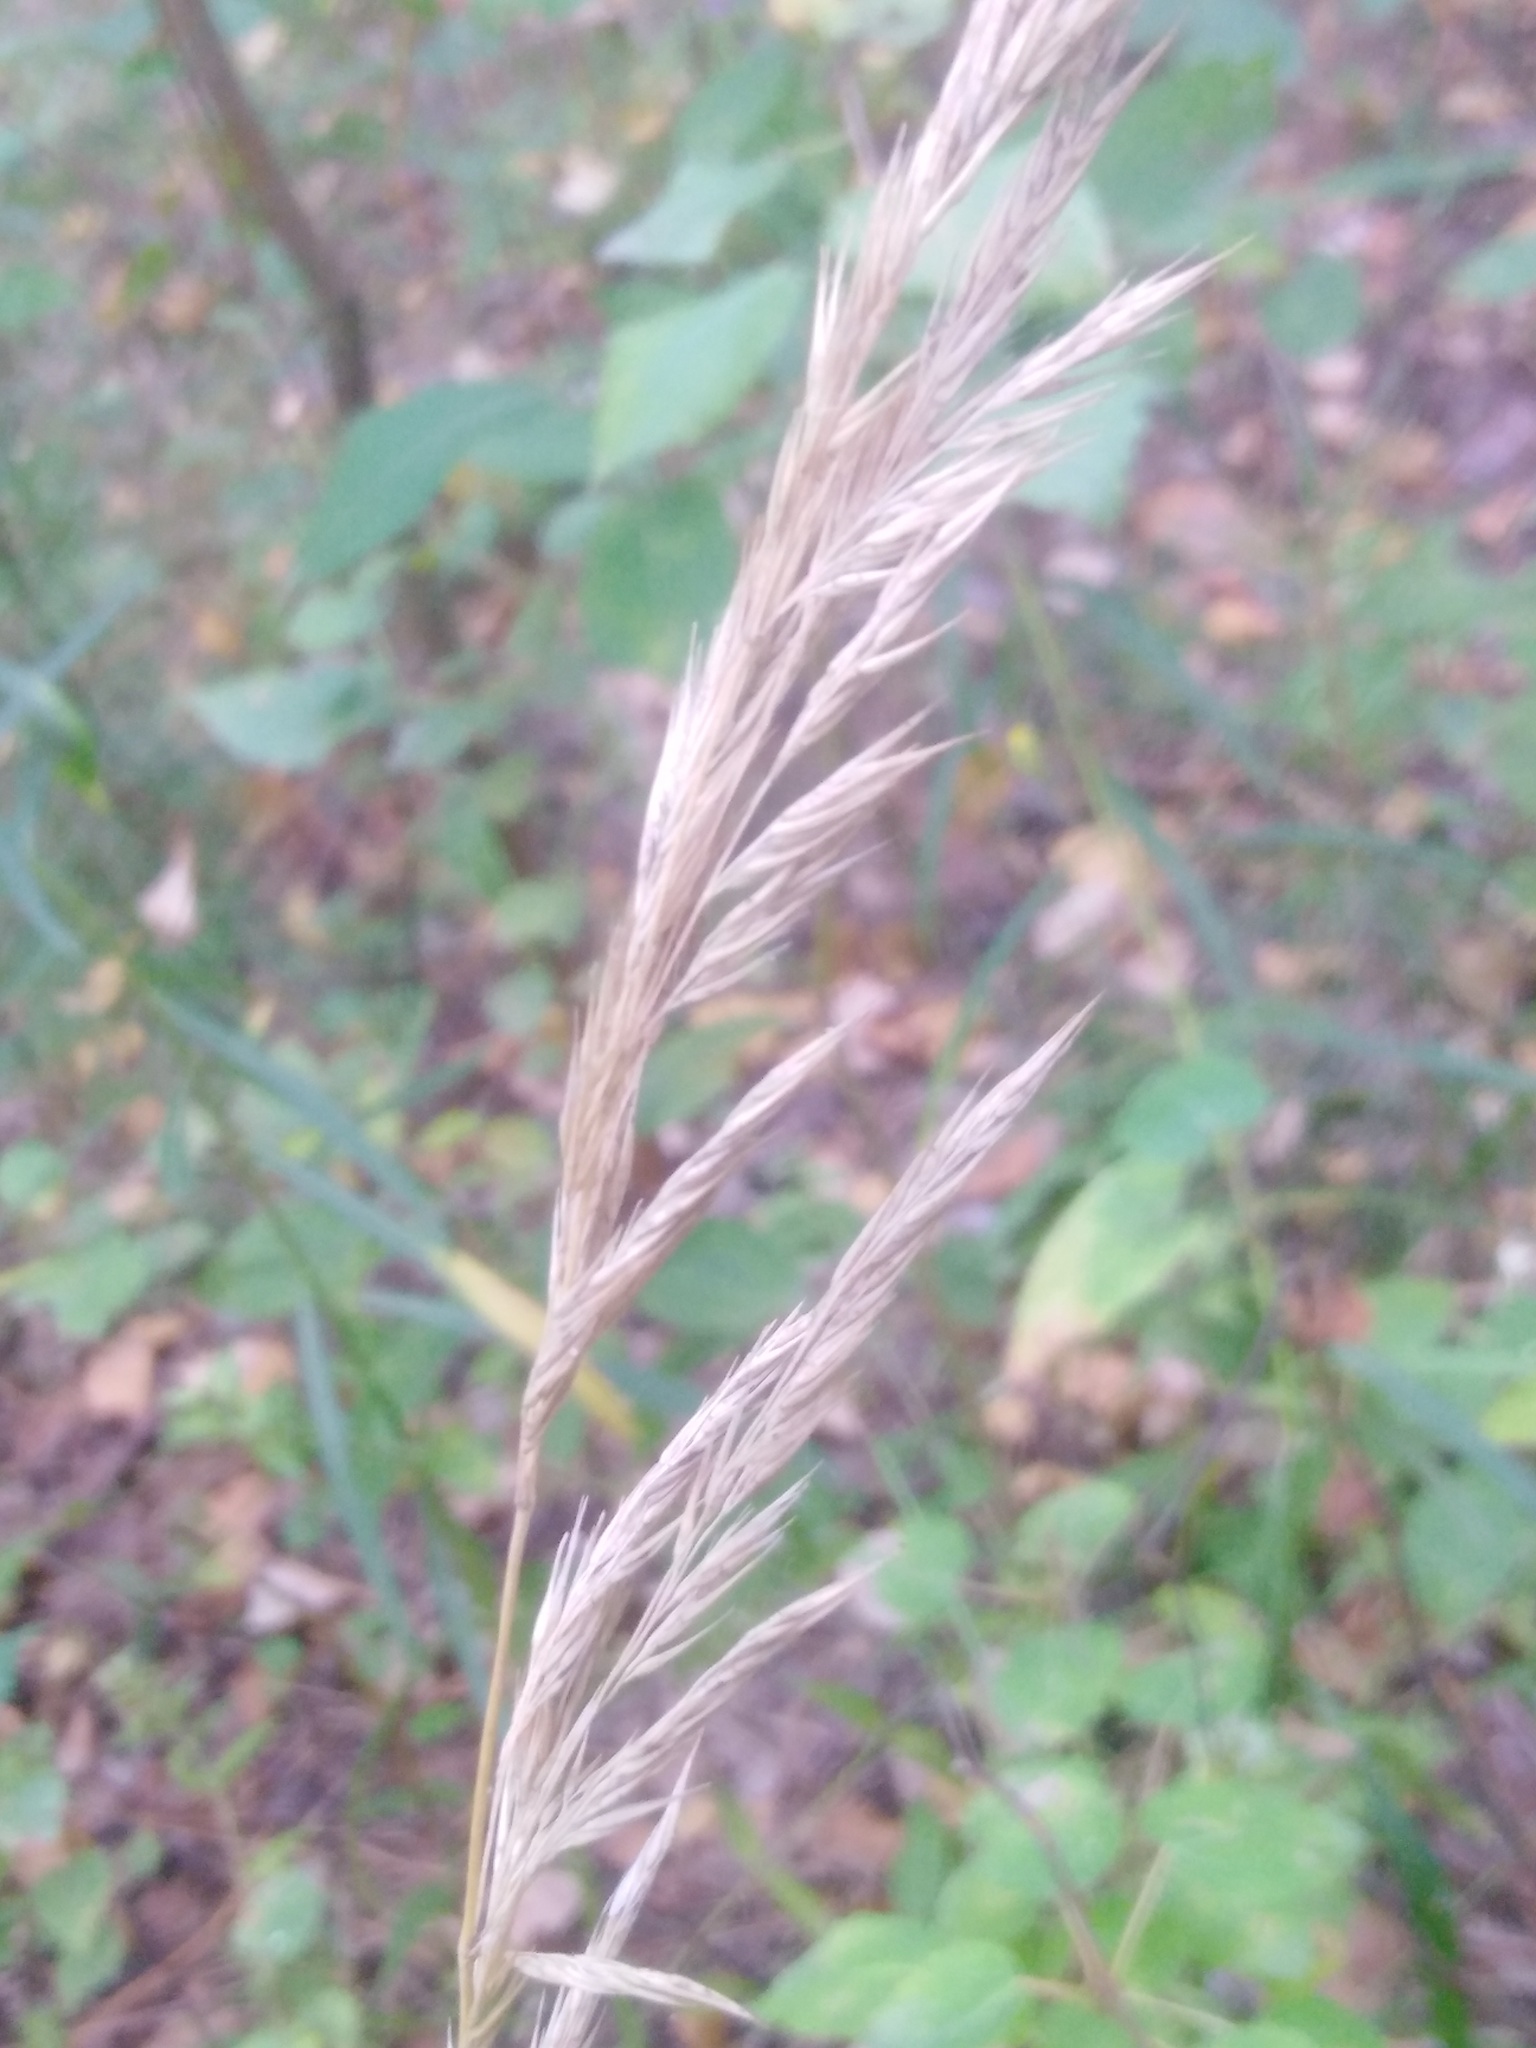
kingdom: Plantae
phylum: Tracheophyta
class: Liliopsida
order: Poales
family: Poaceae
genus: Calamagrostis
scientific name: Calamagrostis arundinacea
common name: Metskastik
